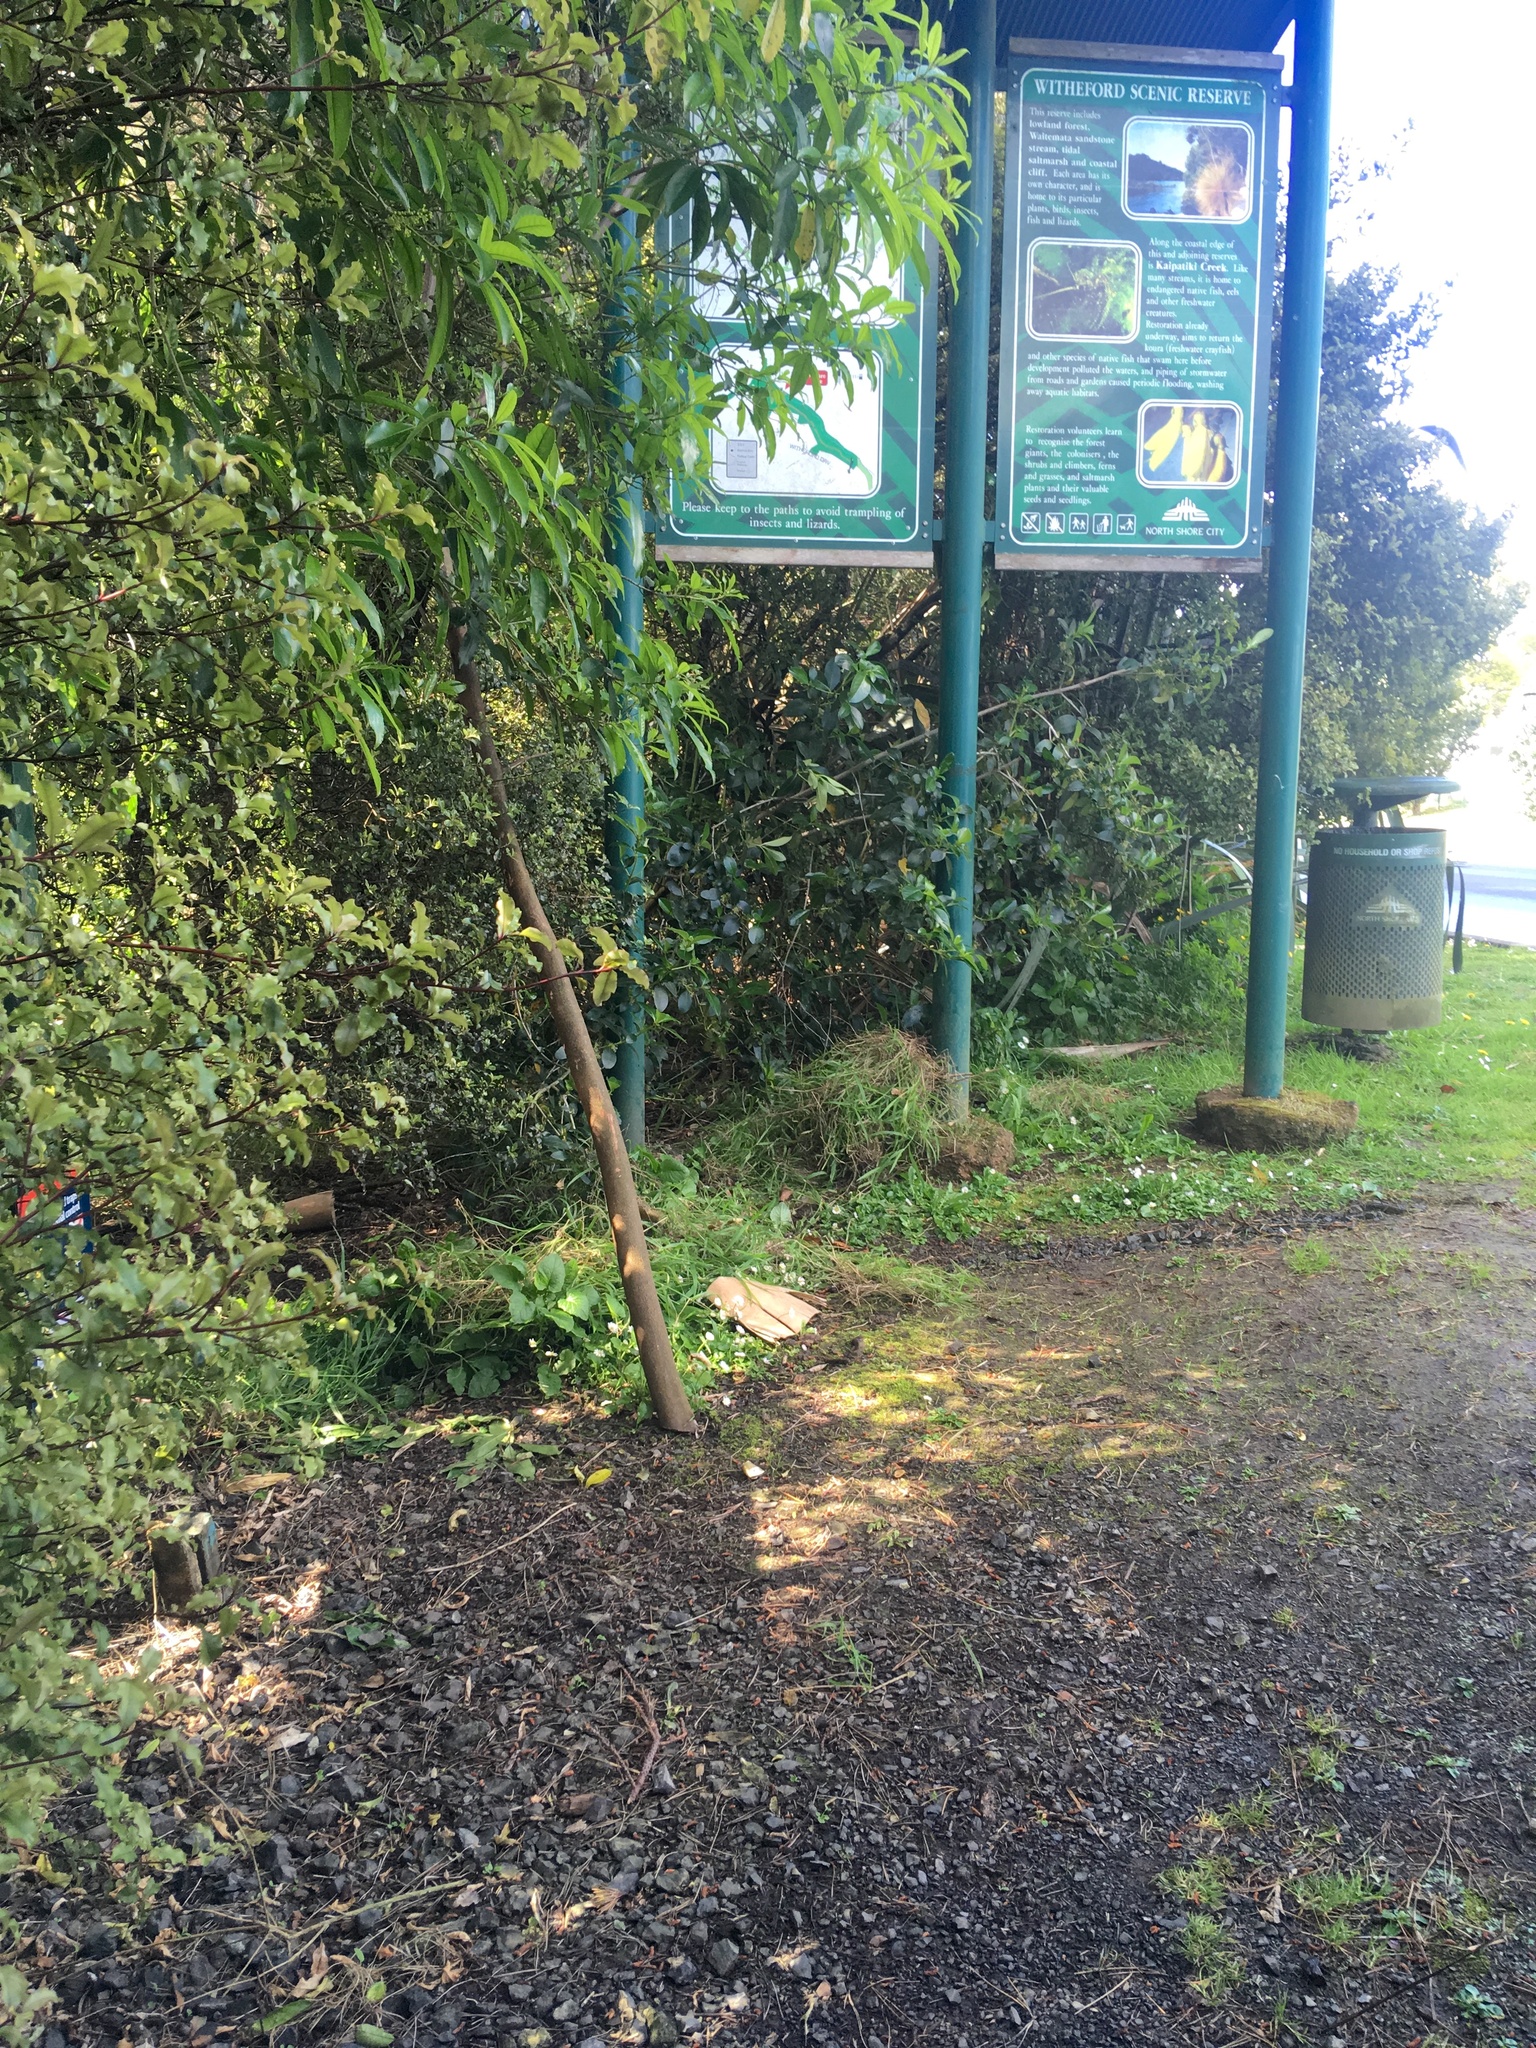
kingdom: Plantae
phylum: Tracheophyta
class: Magnoliopsida
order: Ericales
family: Primulaceae
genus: Myrsine
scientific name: Myrsine australis
